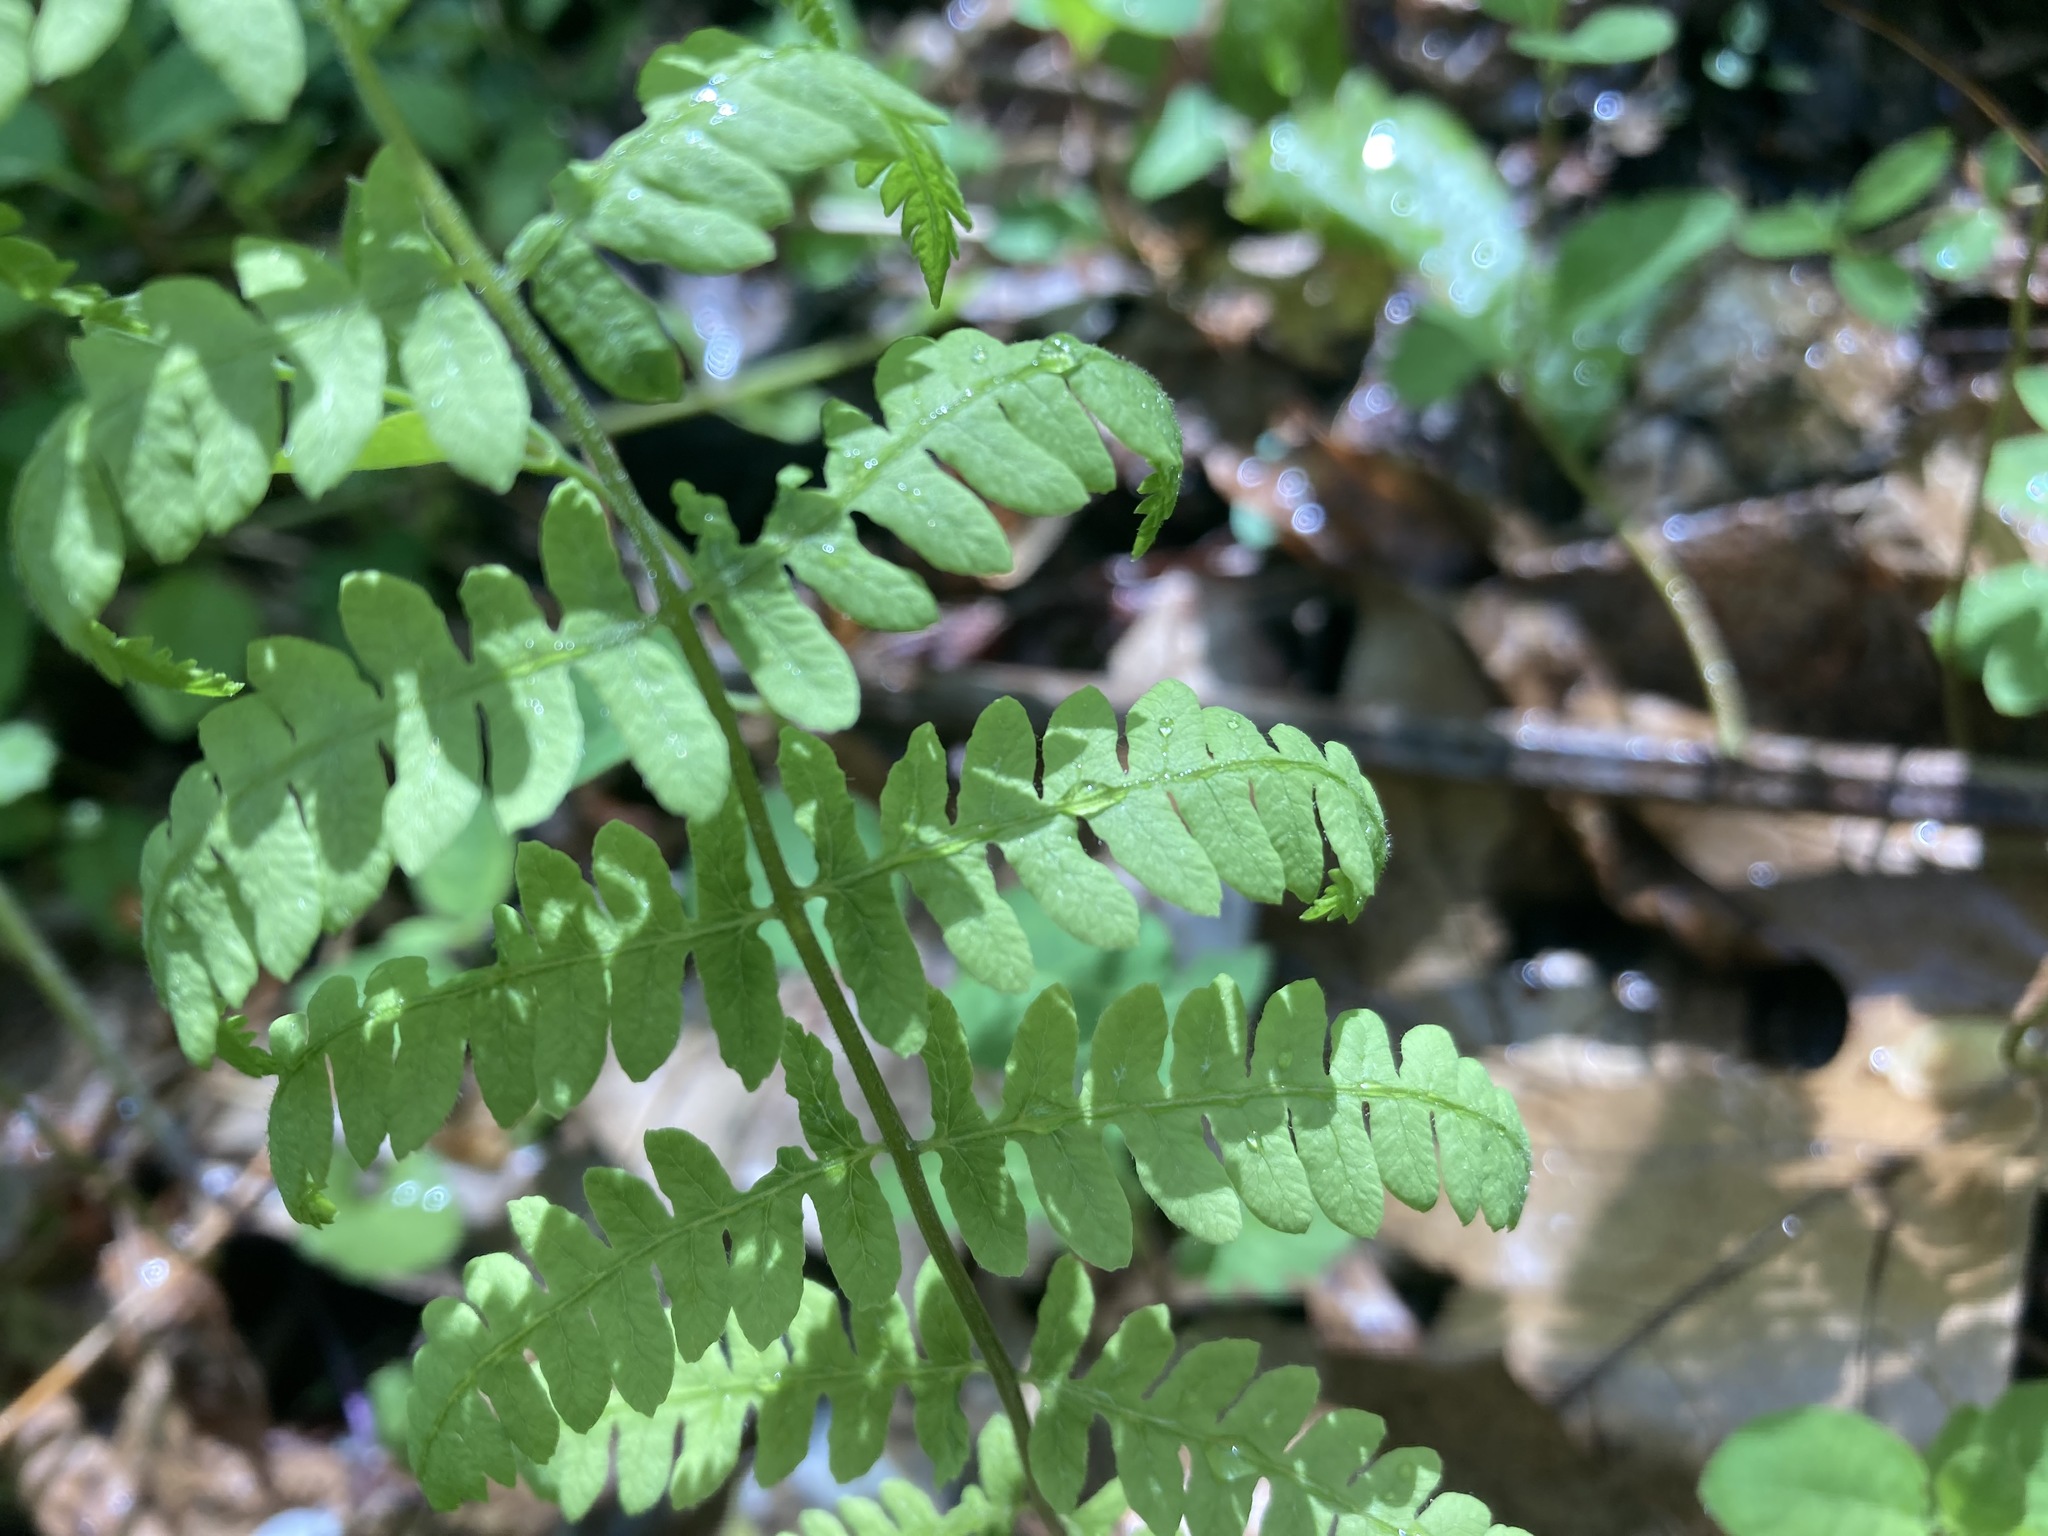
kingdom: Plantae
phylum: Tracheophyta
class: Polypodiopsida
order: Polypodiales
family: Thelypteridaceae
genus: Thelypteris
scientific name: Thelypteris palustris
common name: Marsh fern
